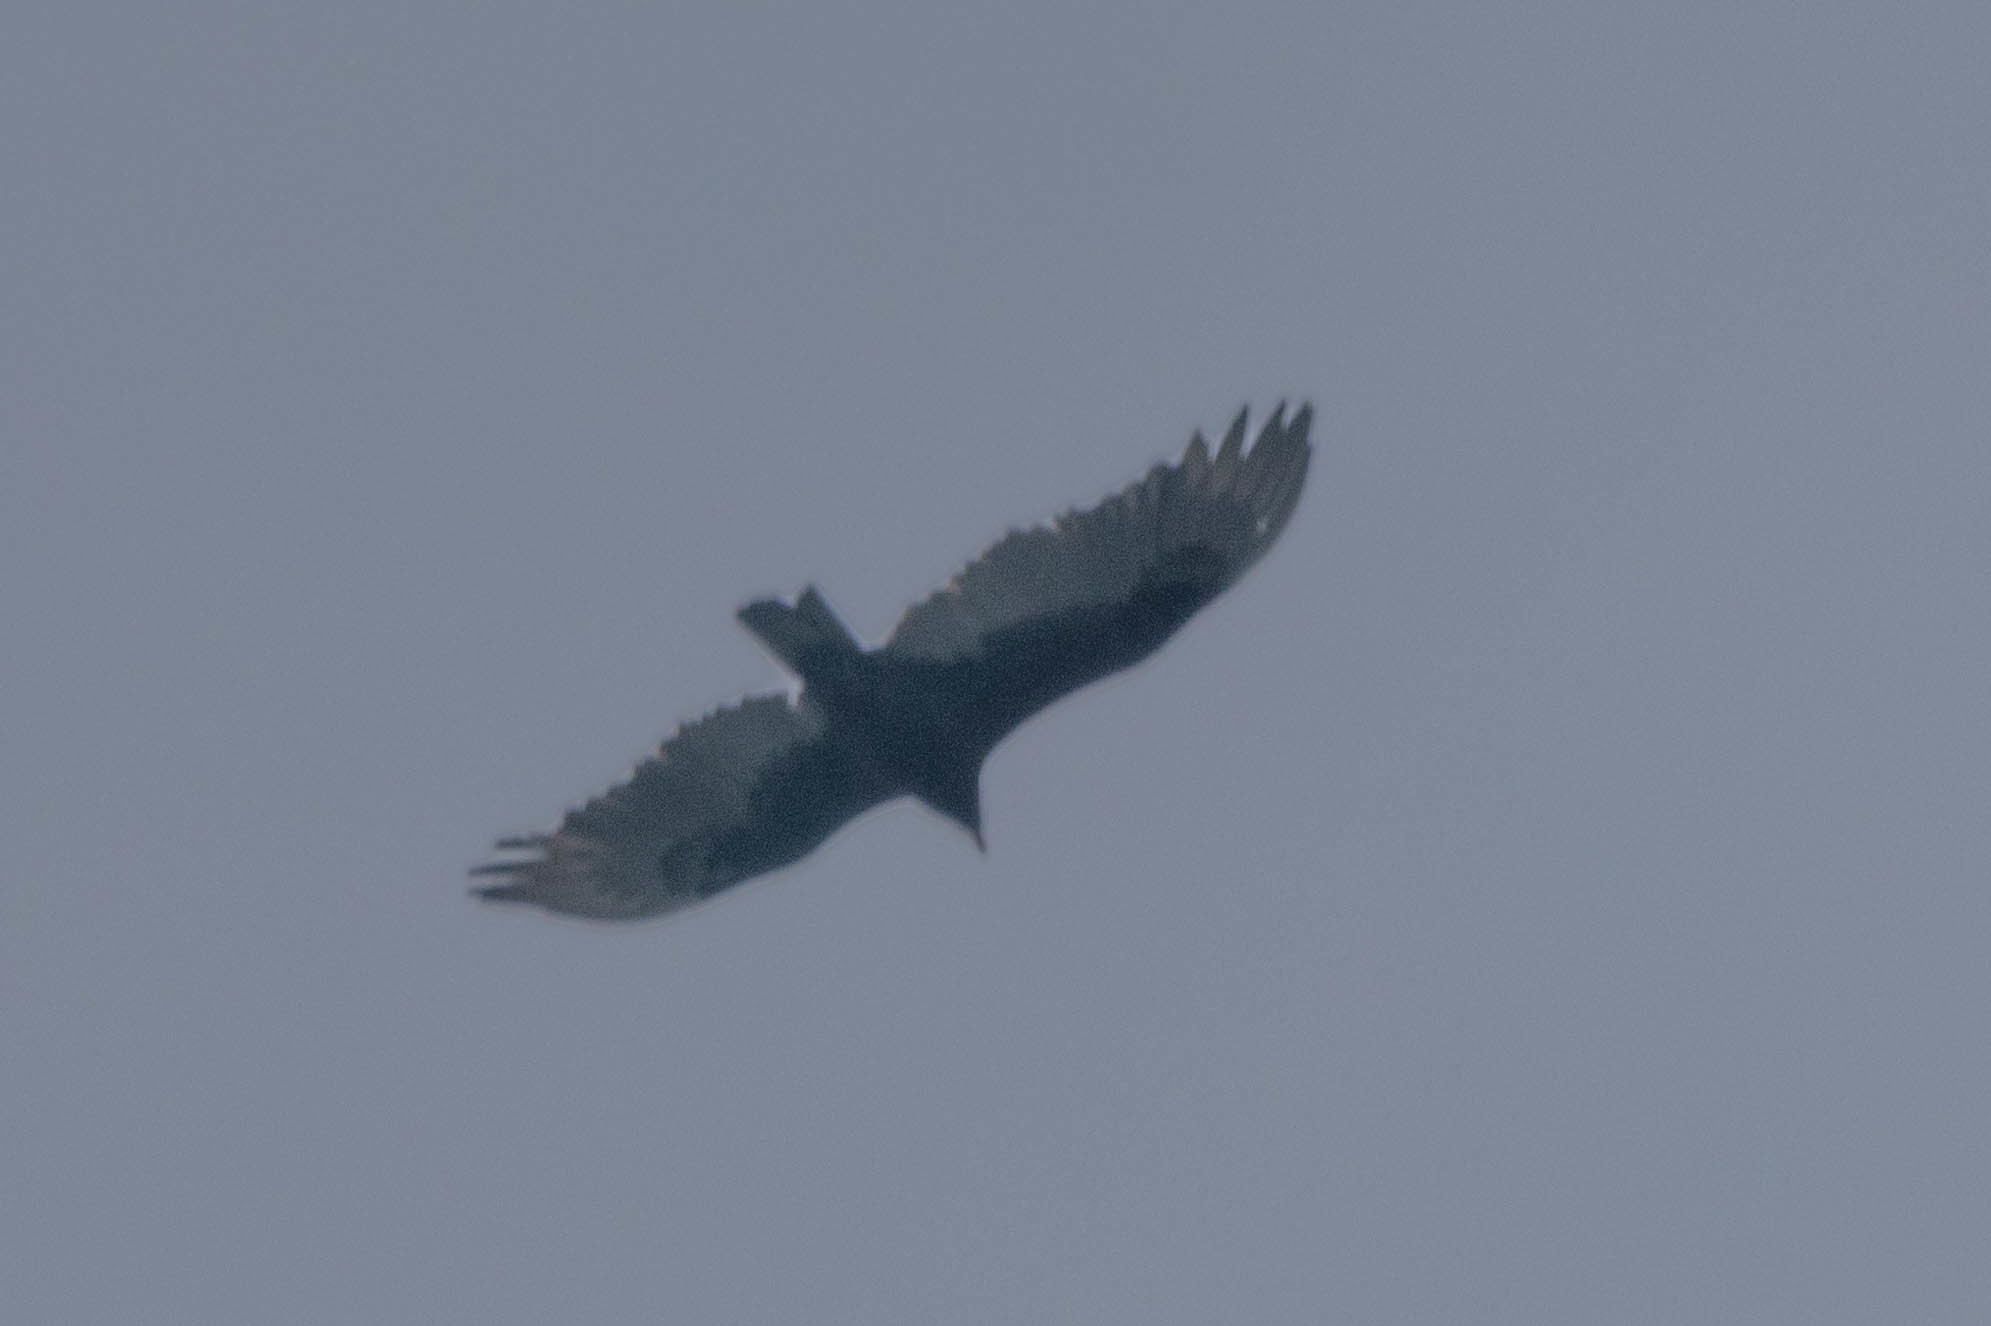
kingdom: Animalia
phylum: Chordata
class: Aves
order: Accipitriformes
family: Cathartidae
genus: Cathartes
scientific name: Cathartes aura
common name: Turkey vulture
